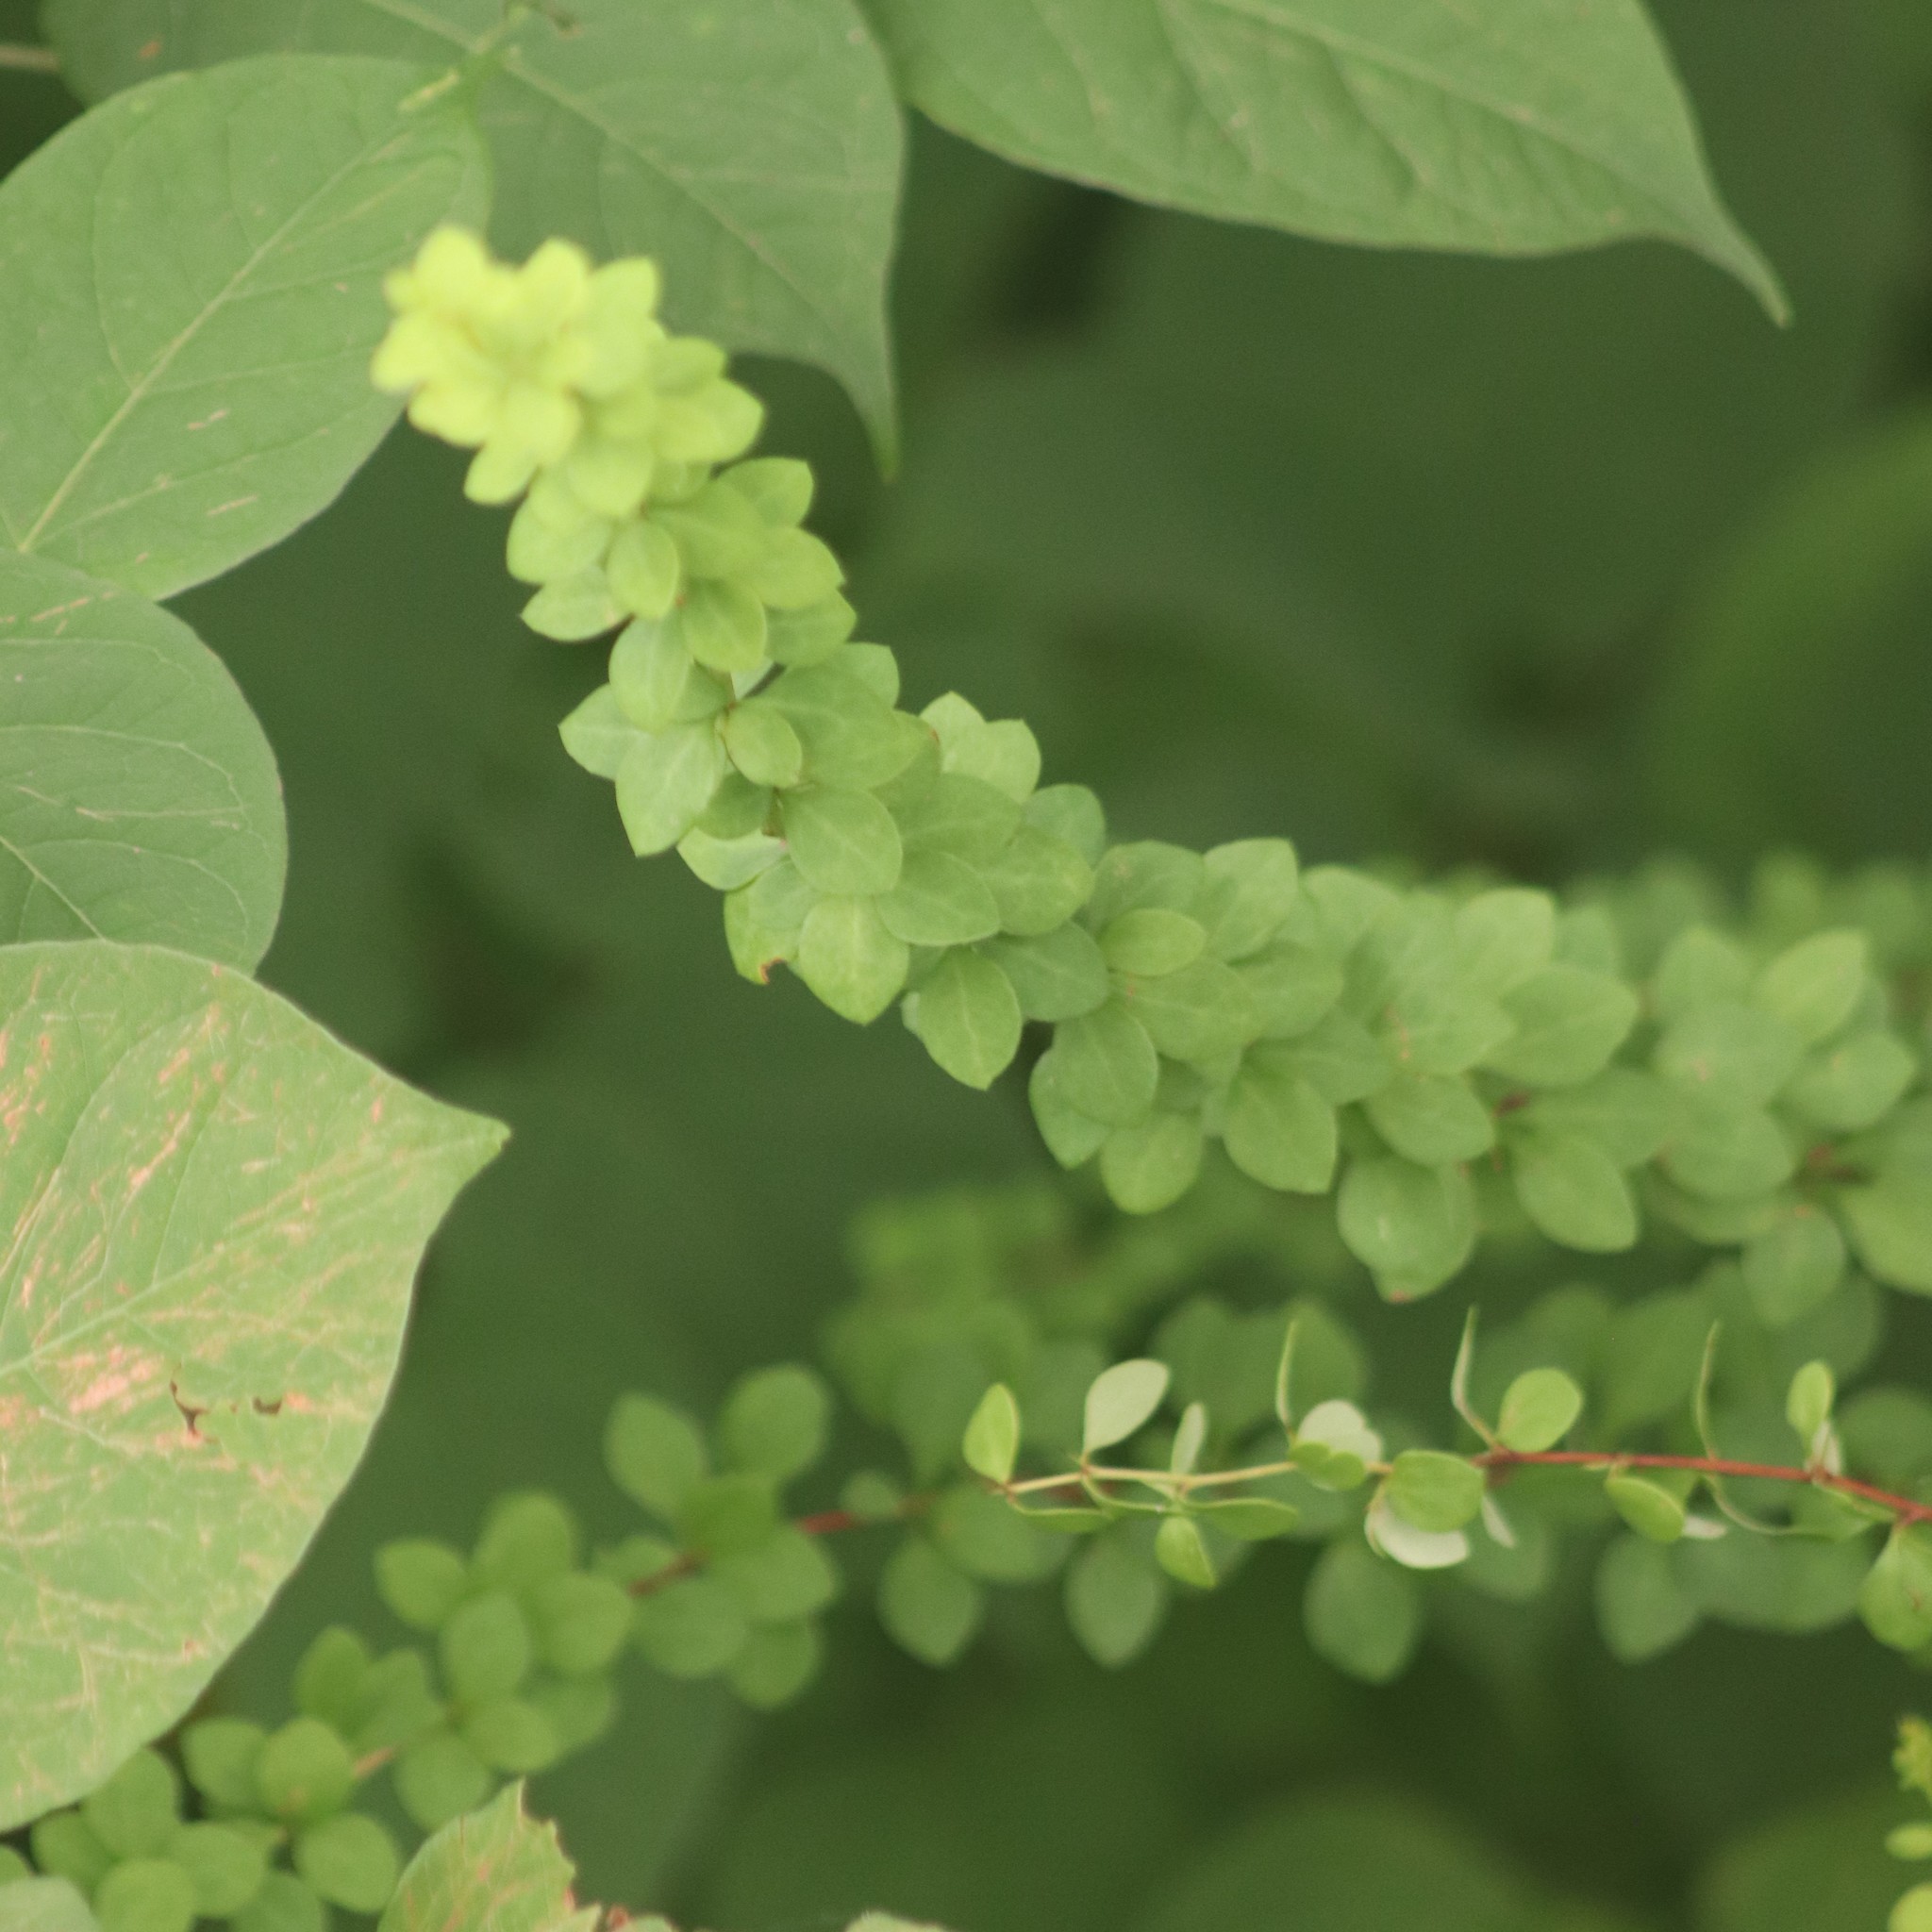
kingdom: Plantae
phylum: Tracheophyta
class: Magnoliopsida
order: Ranunculales
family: Berberidaceae
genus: Berberis
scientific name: Berberis thunbergii
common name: Japanese barberry
